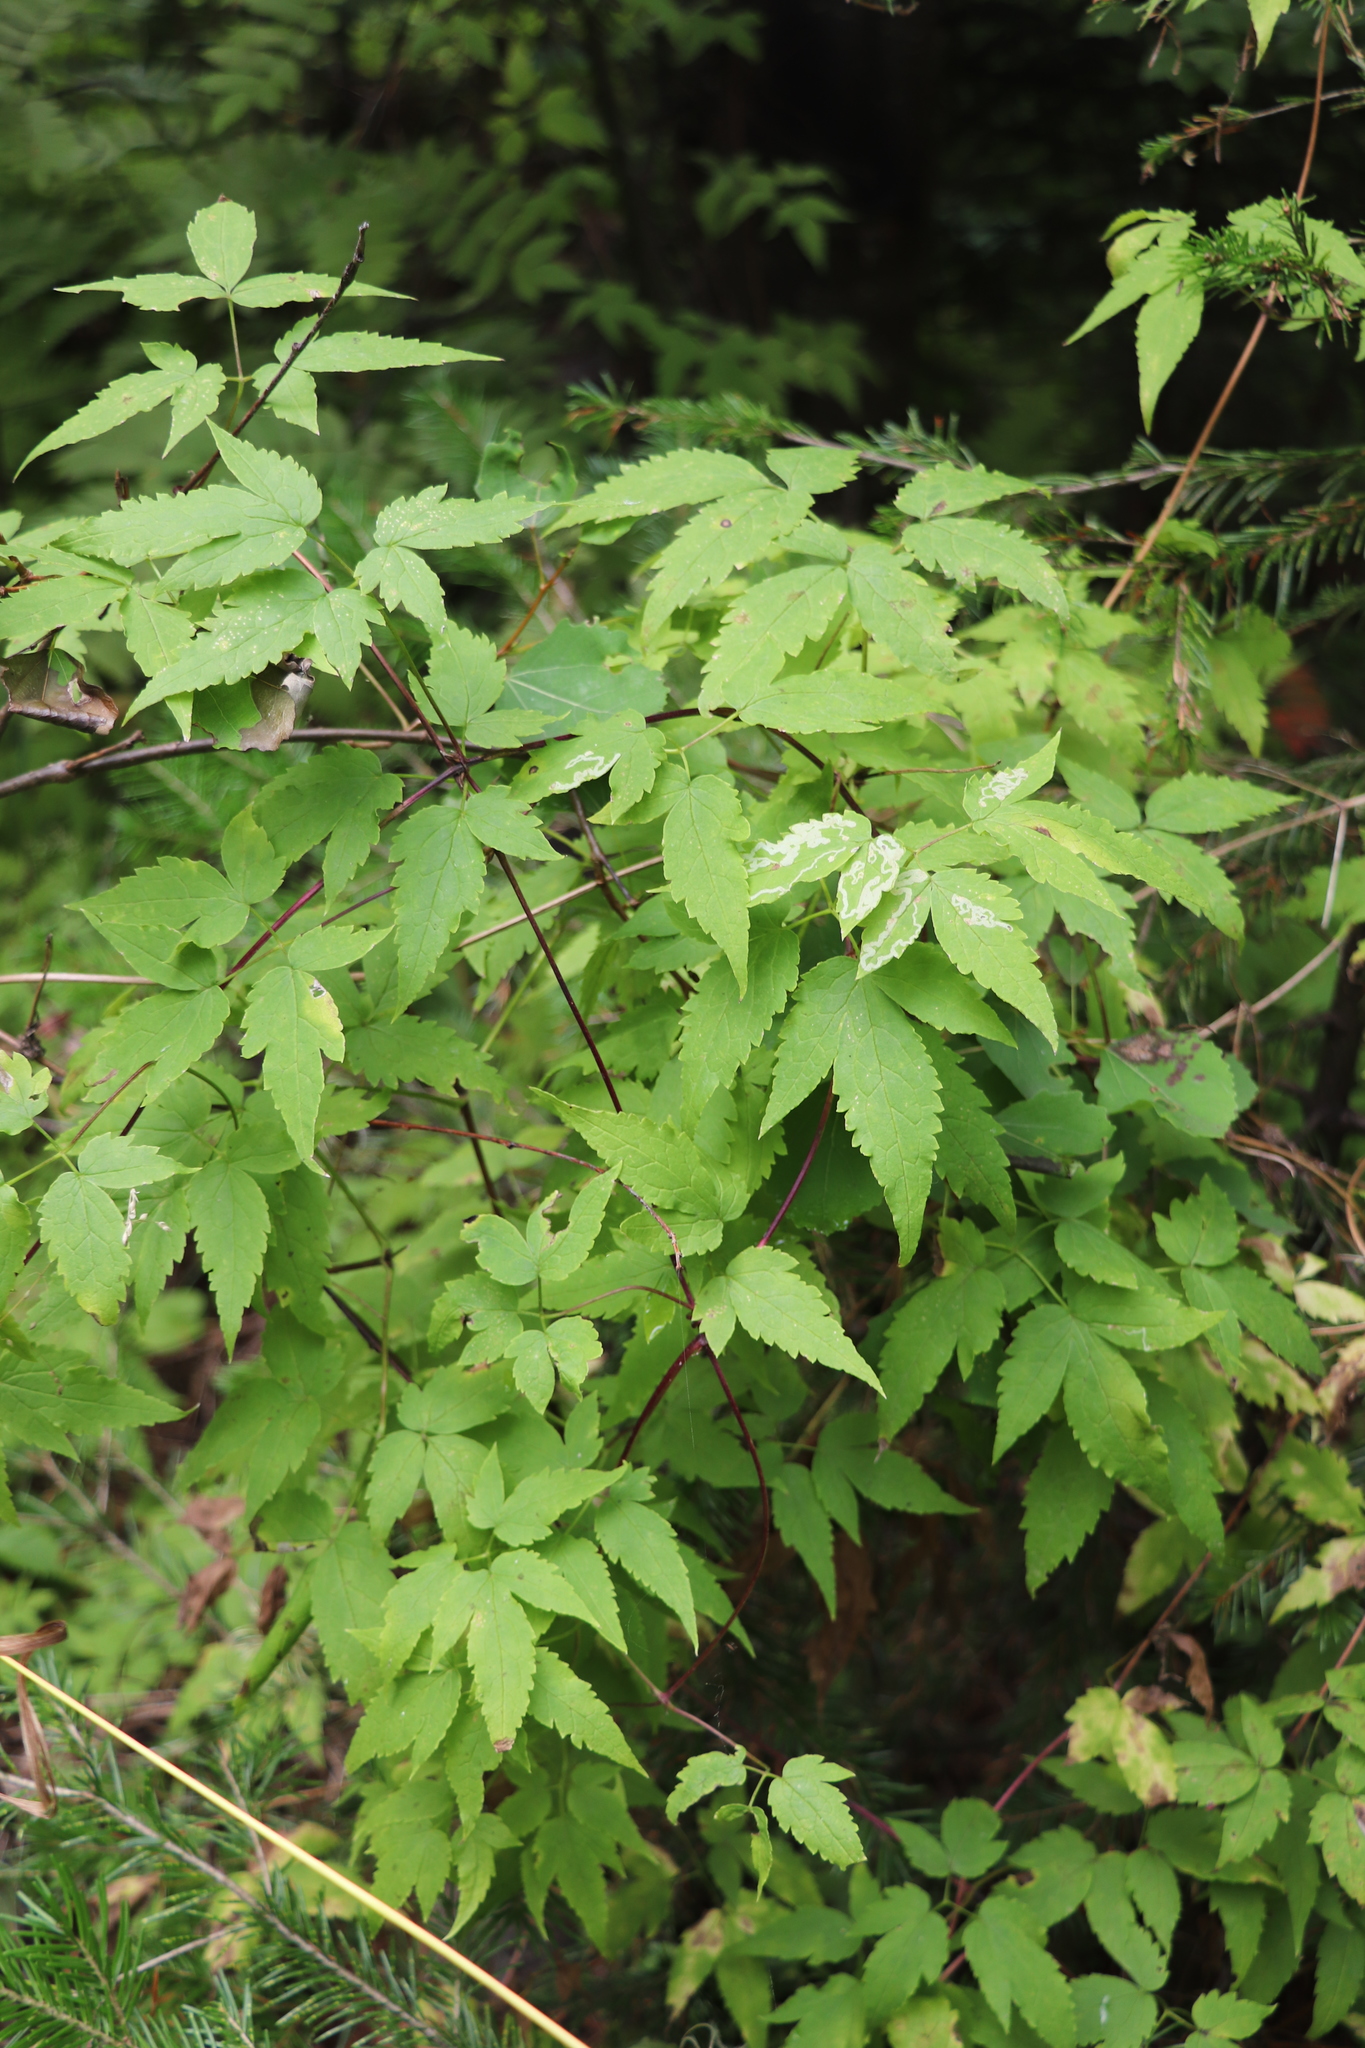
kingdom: Plantae
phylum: Tracheophyta
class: Magnoliopsida
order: Ranunculales
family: Ranunculaceae
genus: Clematis
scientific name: Clematis sibirica
